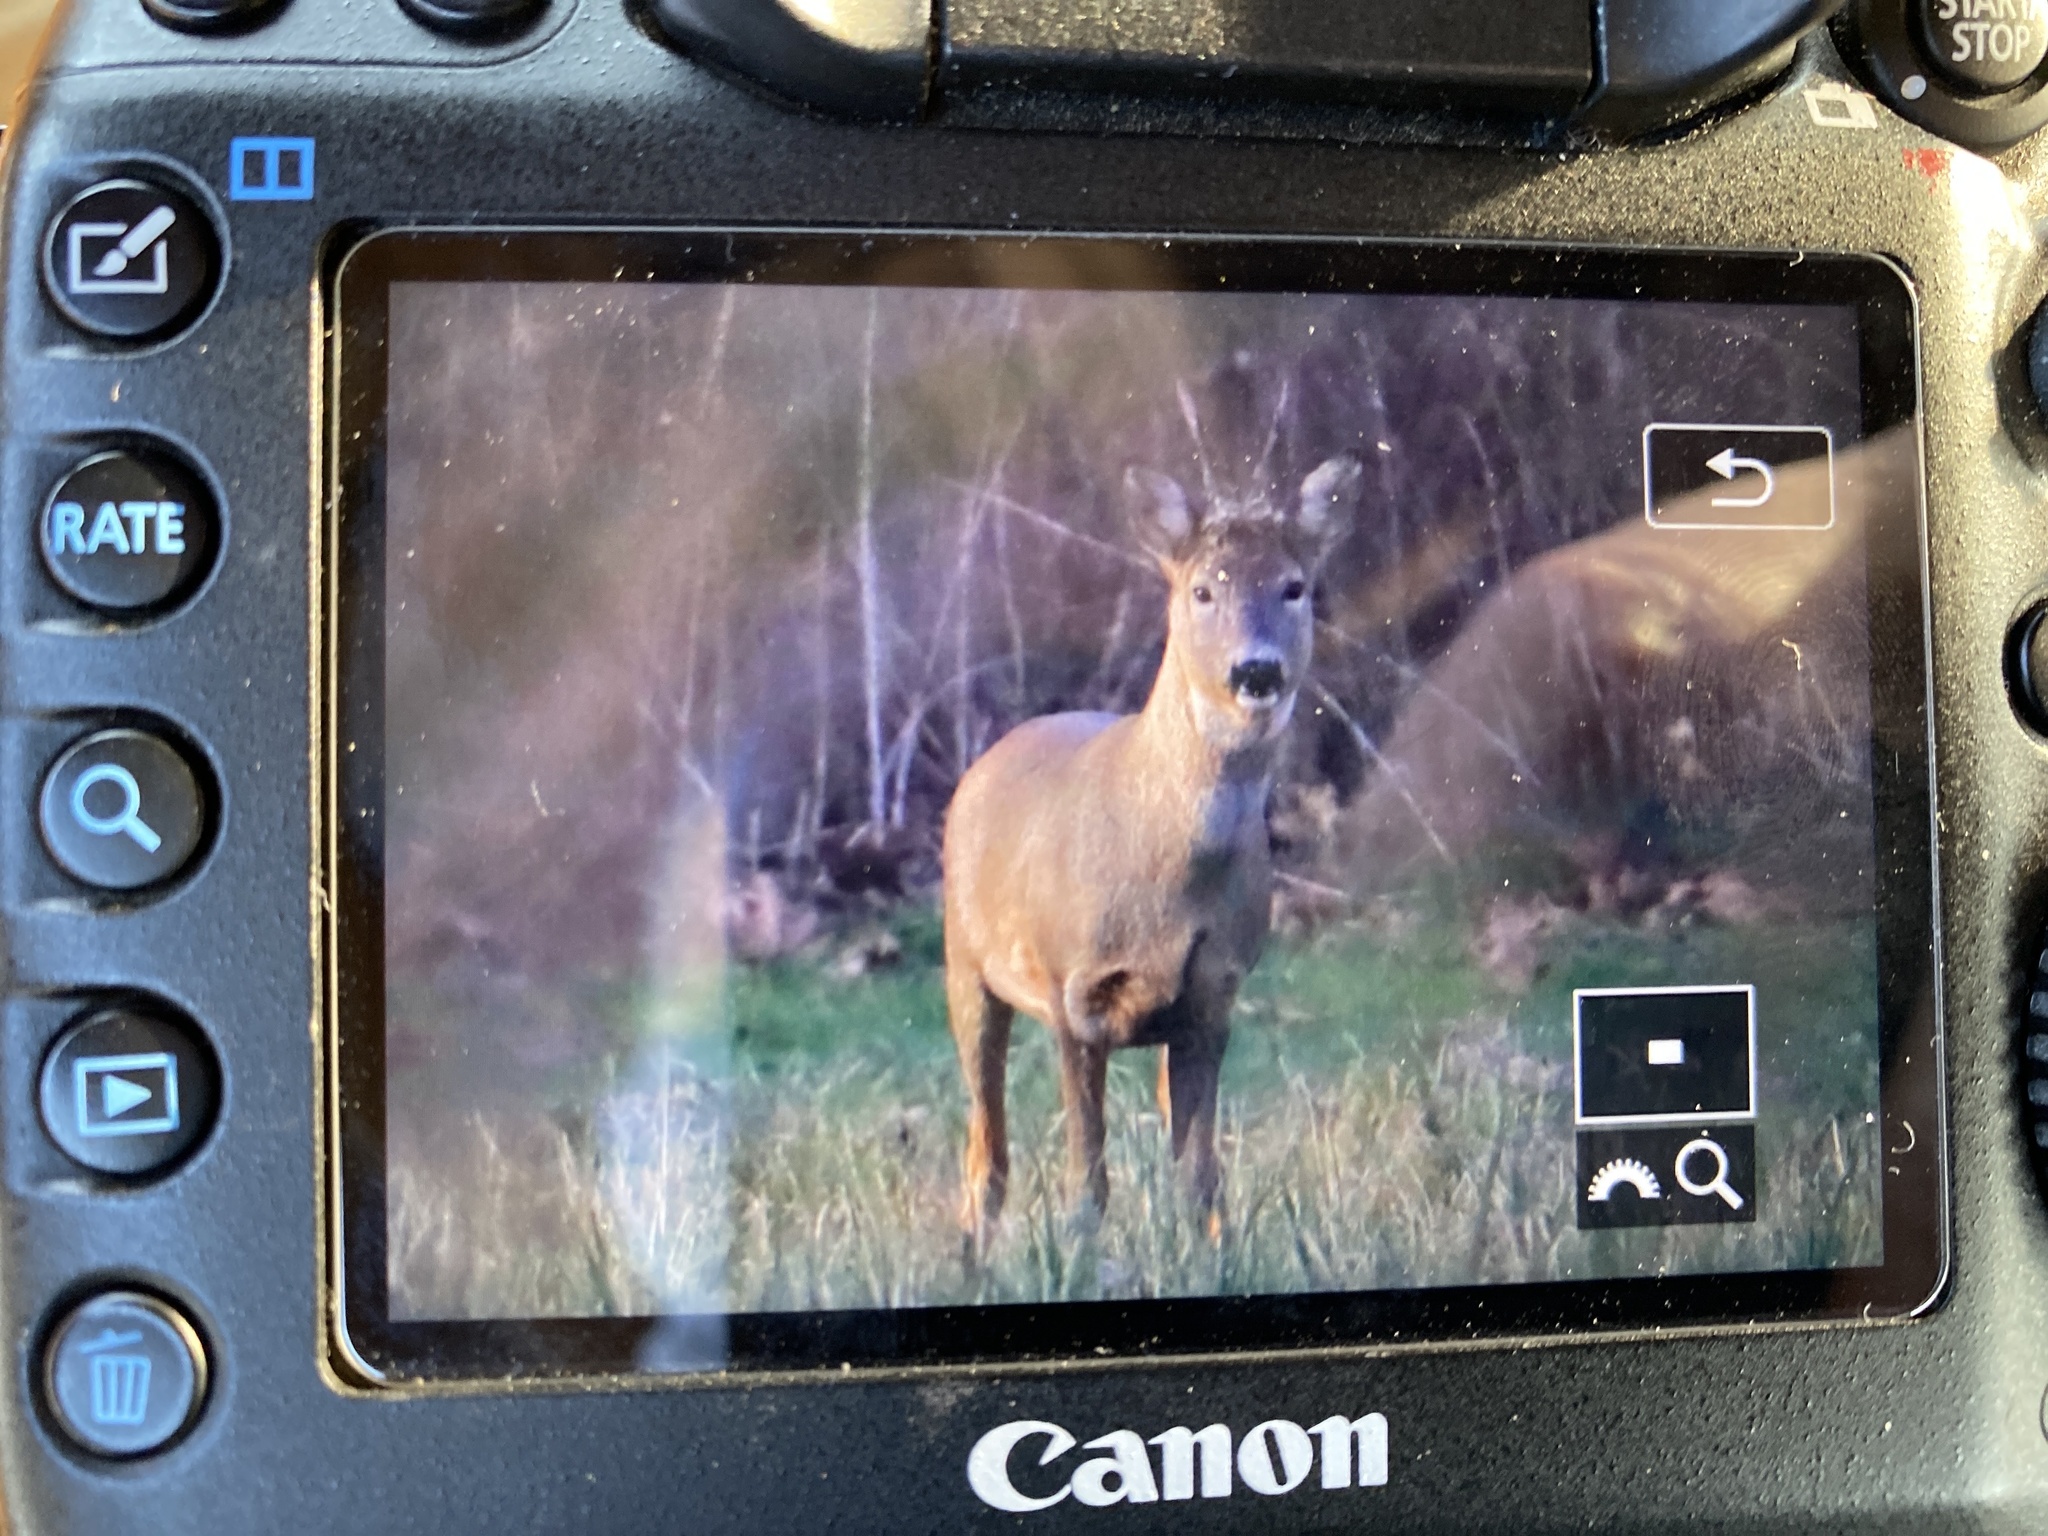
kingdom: Animalia
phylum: Chordata
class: Mammalia
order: Artiodactyla
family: Cervidae
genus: Capreolus
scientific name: Capreolus capreolus
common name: Western roe deer
